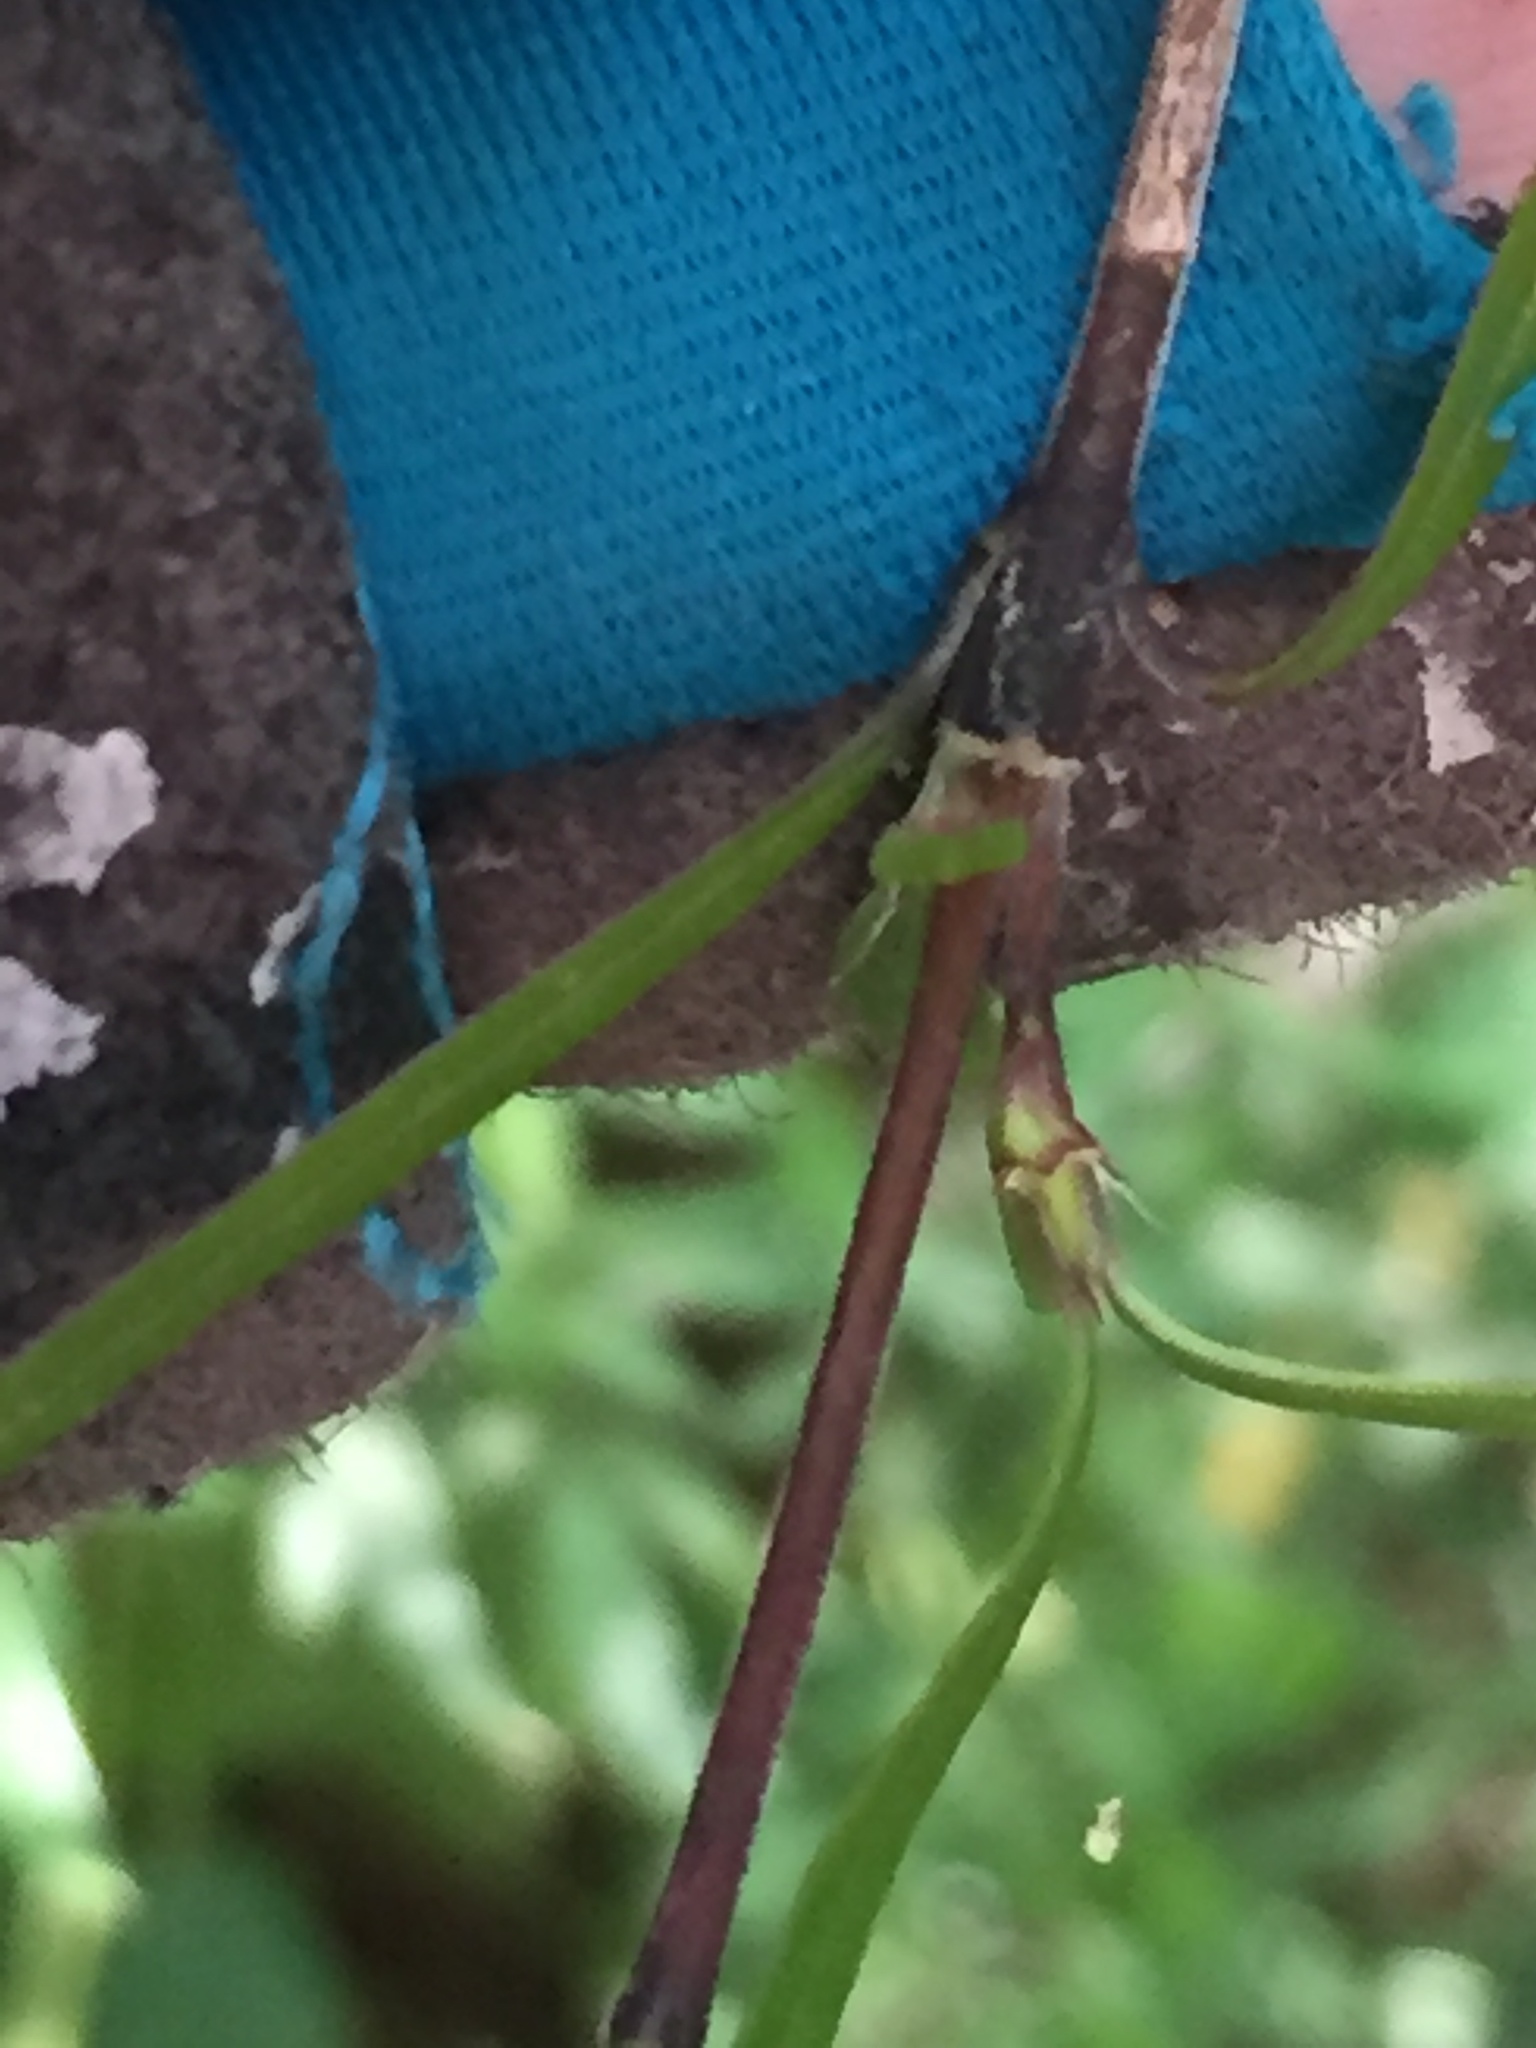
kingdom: Plantae
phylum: Tracheophyta
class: Magnoliopsida
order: Gentianales
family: Rubiaceae
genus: Coprosma
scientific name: Coprosma linariifolia
